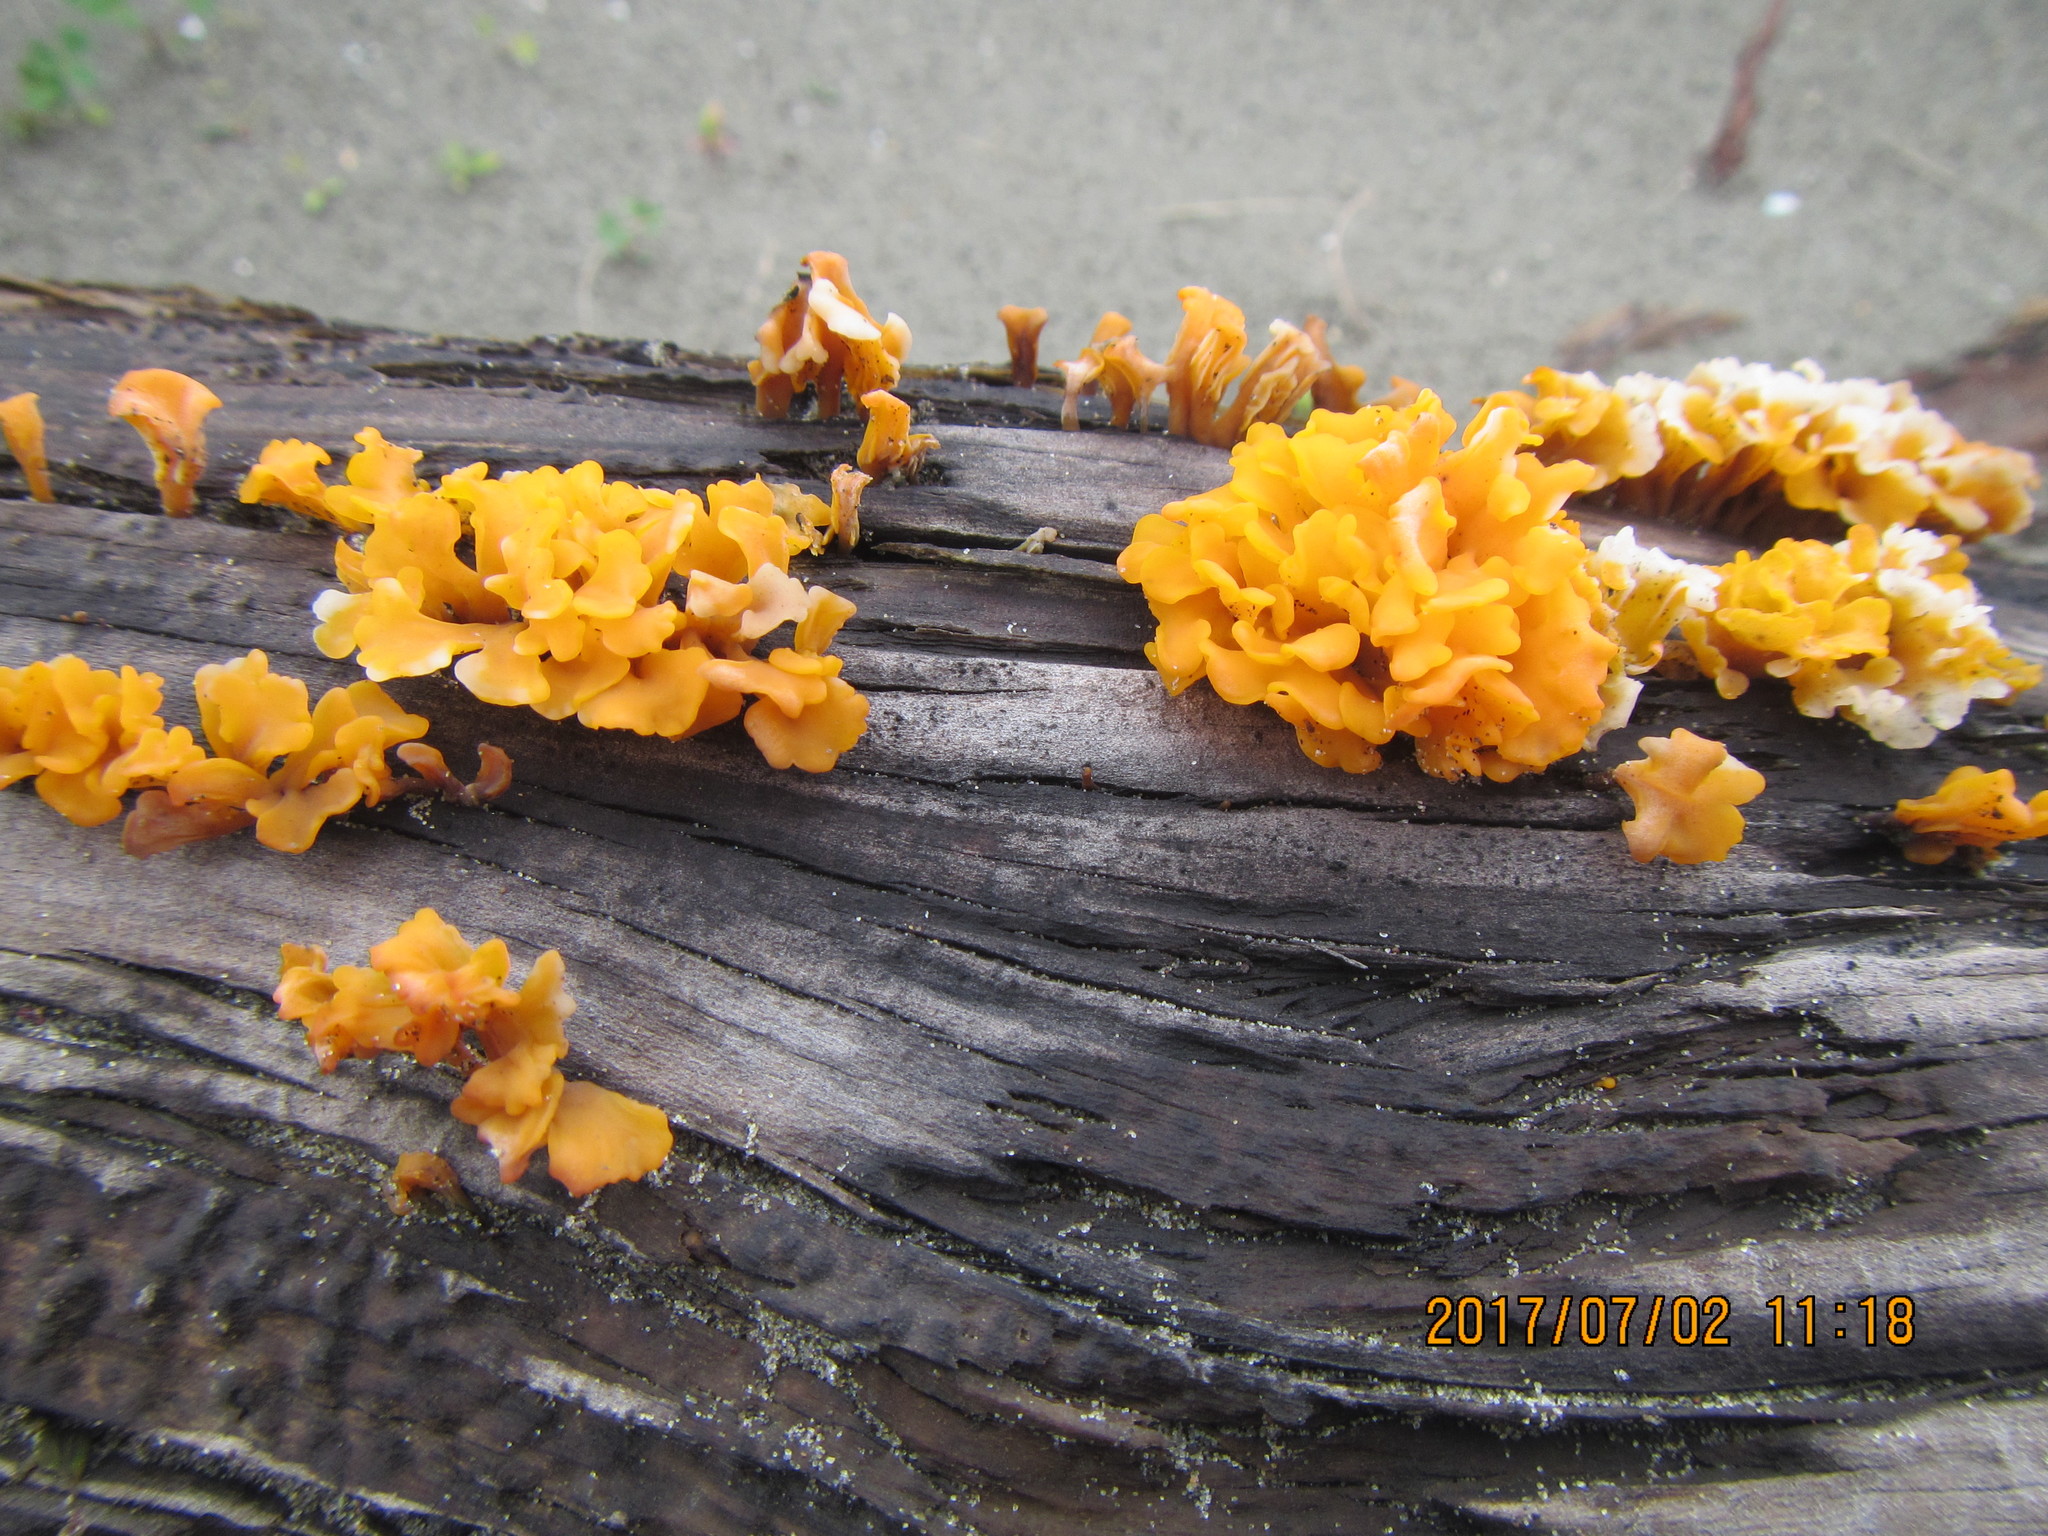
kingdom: Fungi
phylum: Basidiomycota
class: Dacrymycetes
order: Dacrymycetales
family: Dacrymycetaceae
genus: Dacrymyces
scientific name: Dacrymyces spathularius
